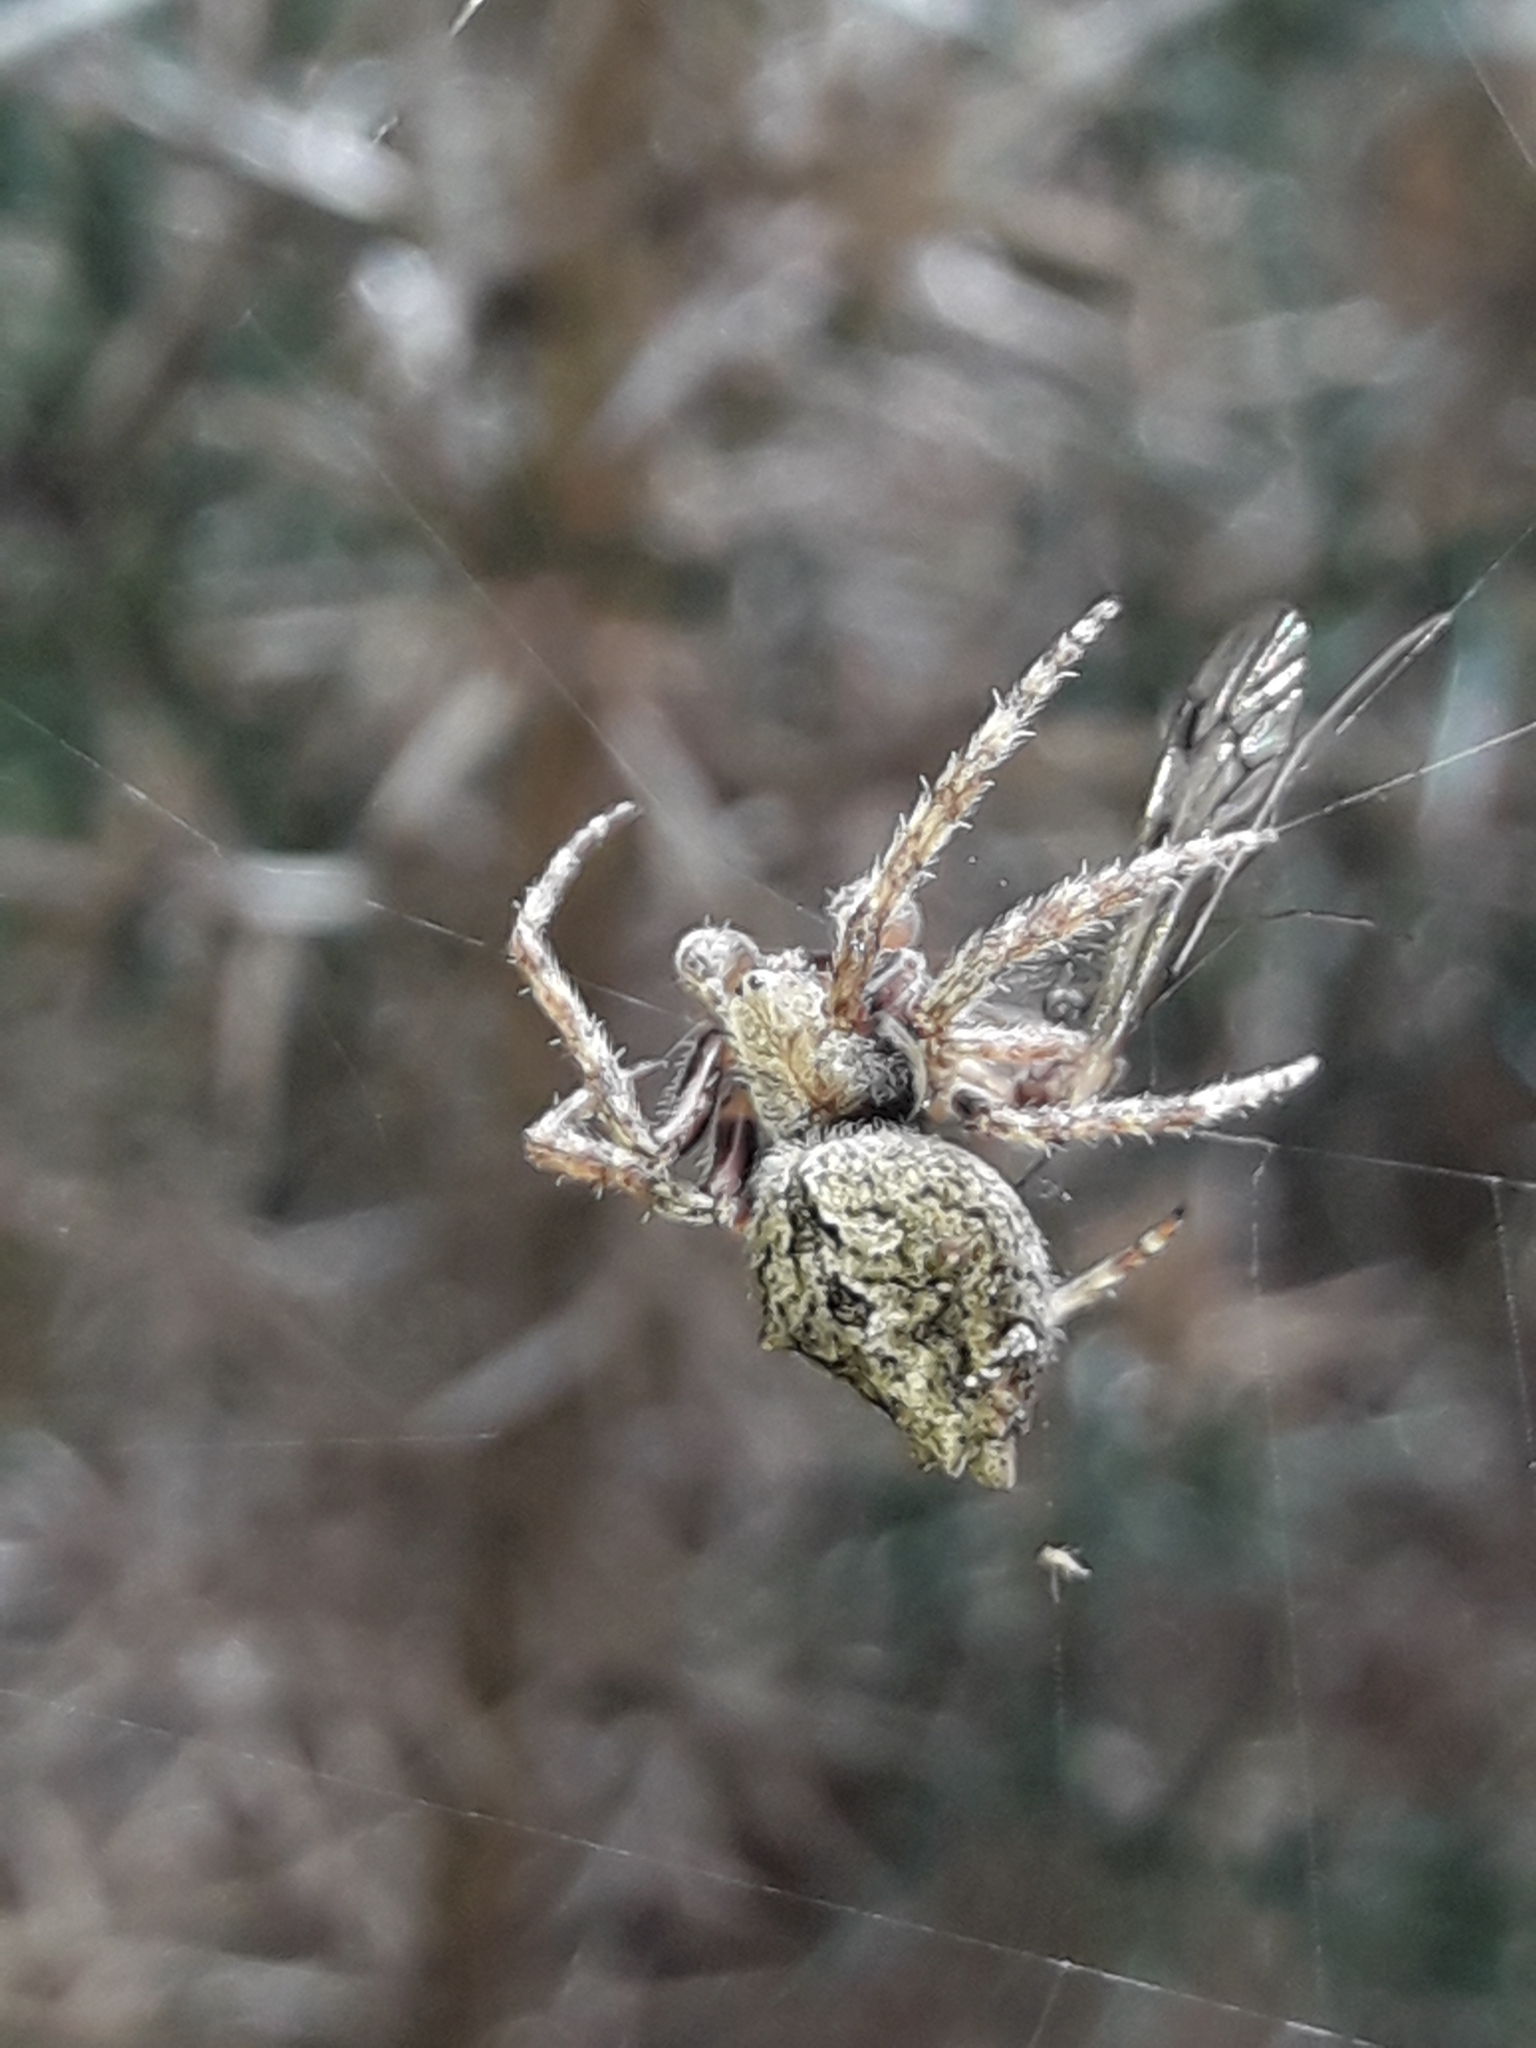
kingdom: Animalia
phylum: Arthropoda
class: Arachnida
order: Araneae
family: Araneidae
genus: Eriophora
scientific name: Eriophora pustulosa
